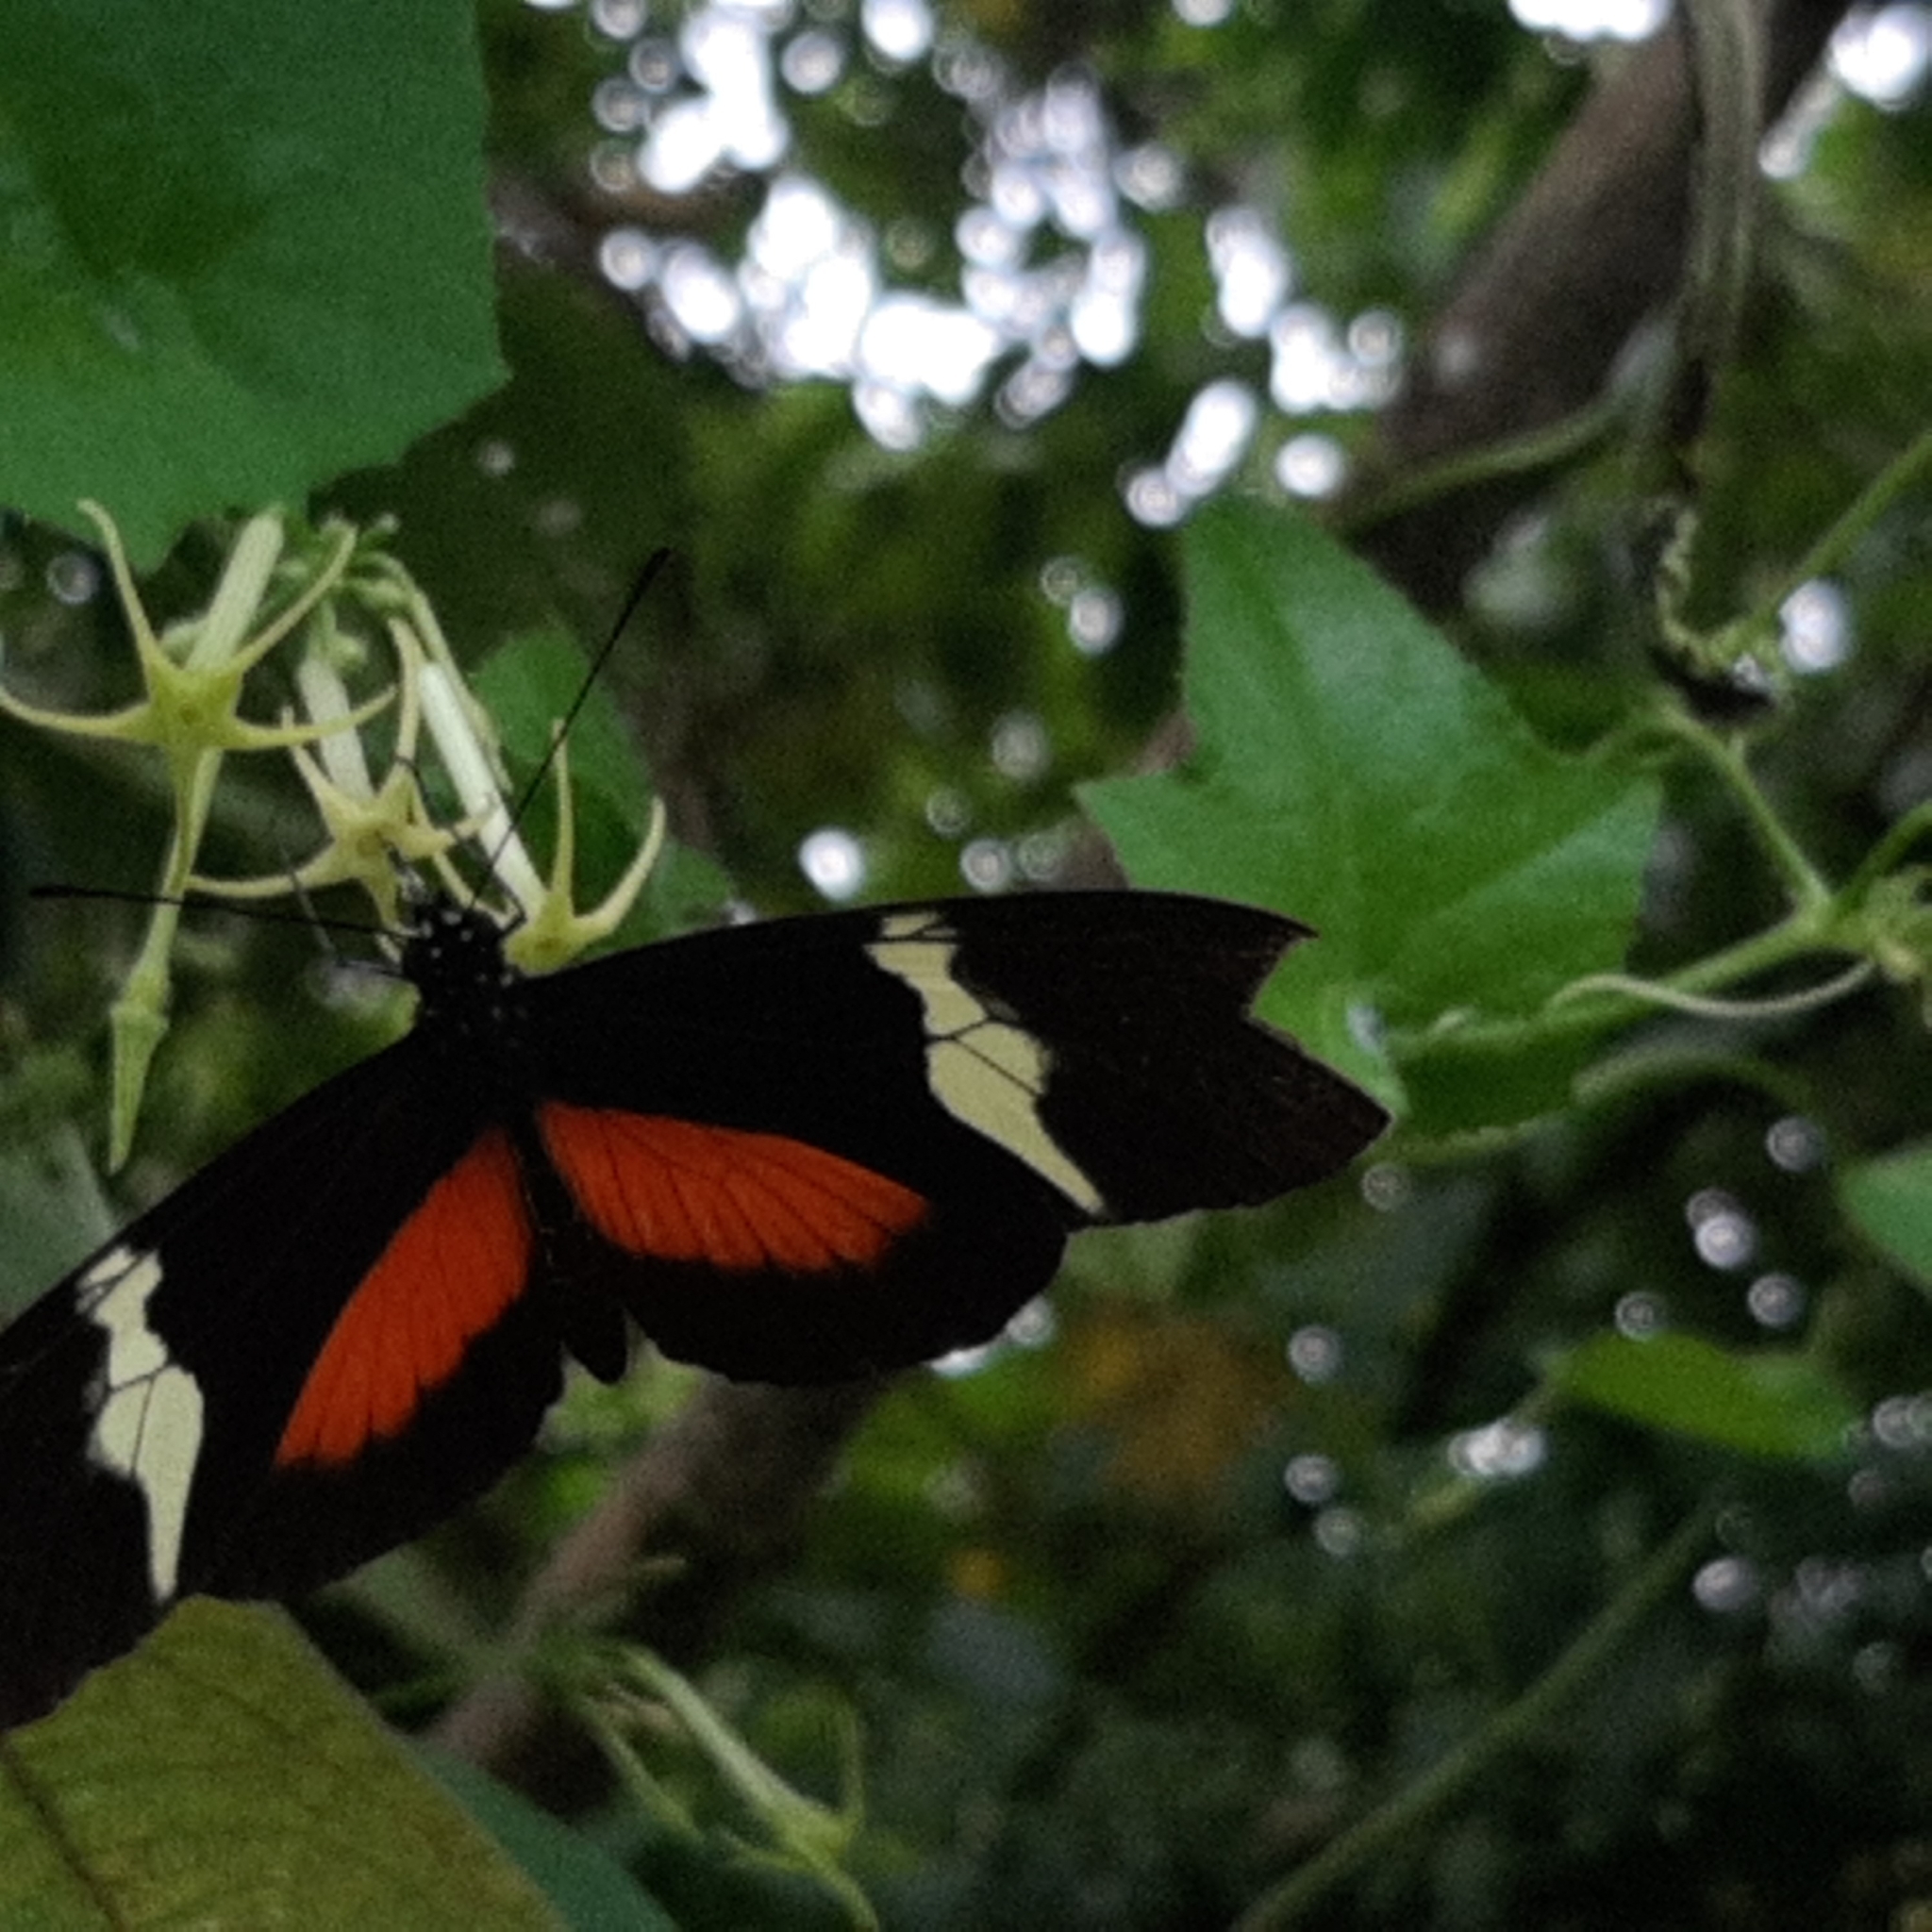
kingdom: Animalia
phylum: Arthropoda
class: Insecta
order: Lepidoptera
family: Nymphalidae
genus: Heliconius
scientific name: Heliconius clysonymus
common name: Clysonymus longwing
